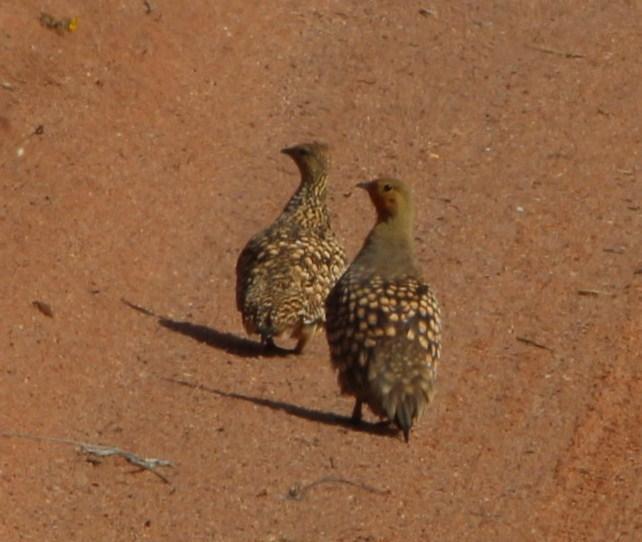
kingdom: Animalia
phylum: Chordata
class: Aves
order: Pteroclidiformes
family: Pteroclididae
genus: Pterocles
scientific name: Pterocles namaqua
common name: Namaqua sandgrouse
